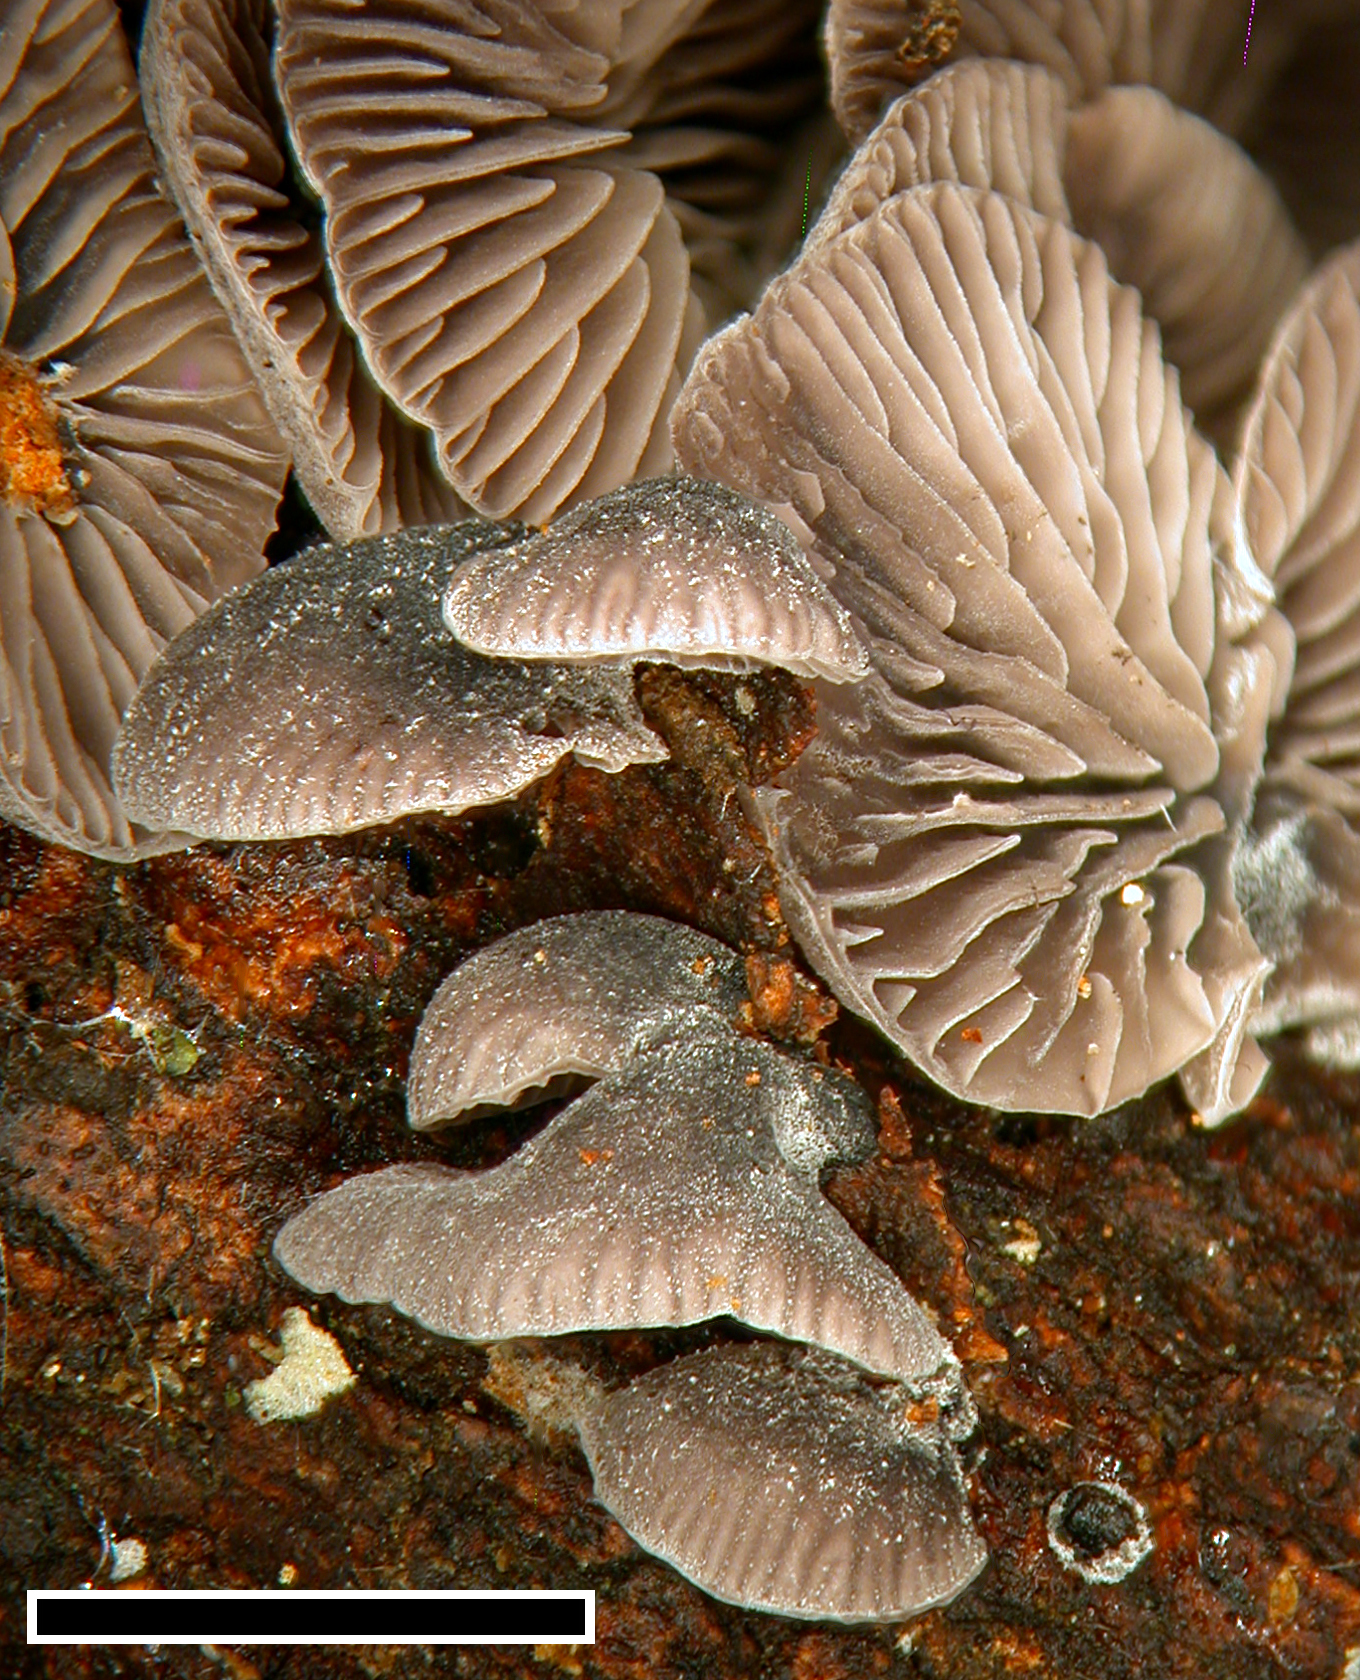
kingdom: Fungi
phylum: Basidiomycota
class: Agaricomycetes
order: Agaricales
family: Omphalotaceae
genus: Marasmiellus
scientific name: Marasmiellus violaceogriseus
